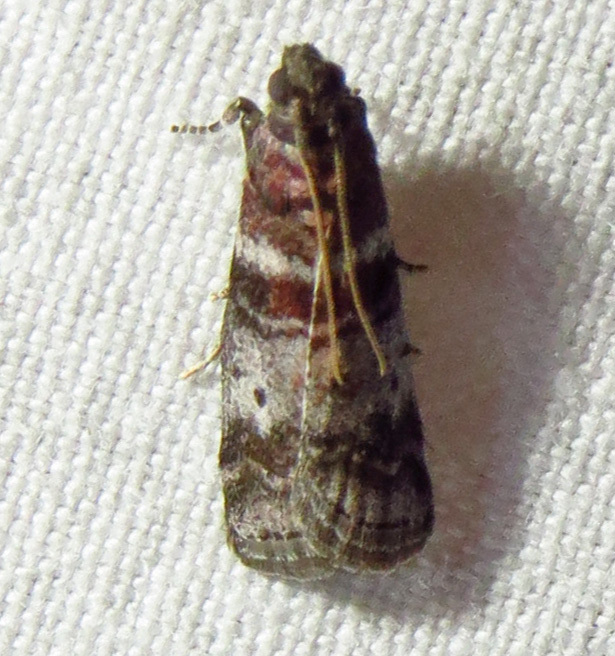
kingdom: Animalia
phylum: Arthropoda
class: Insecta
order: Lepidoptera
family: Pyralidae
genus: Sciota
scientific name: Sciota uvinella
